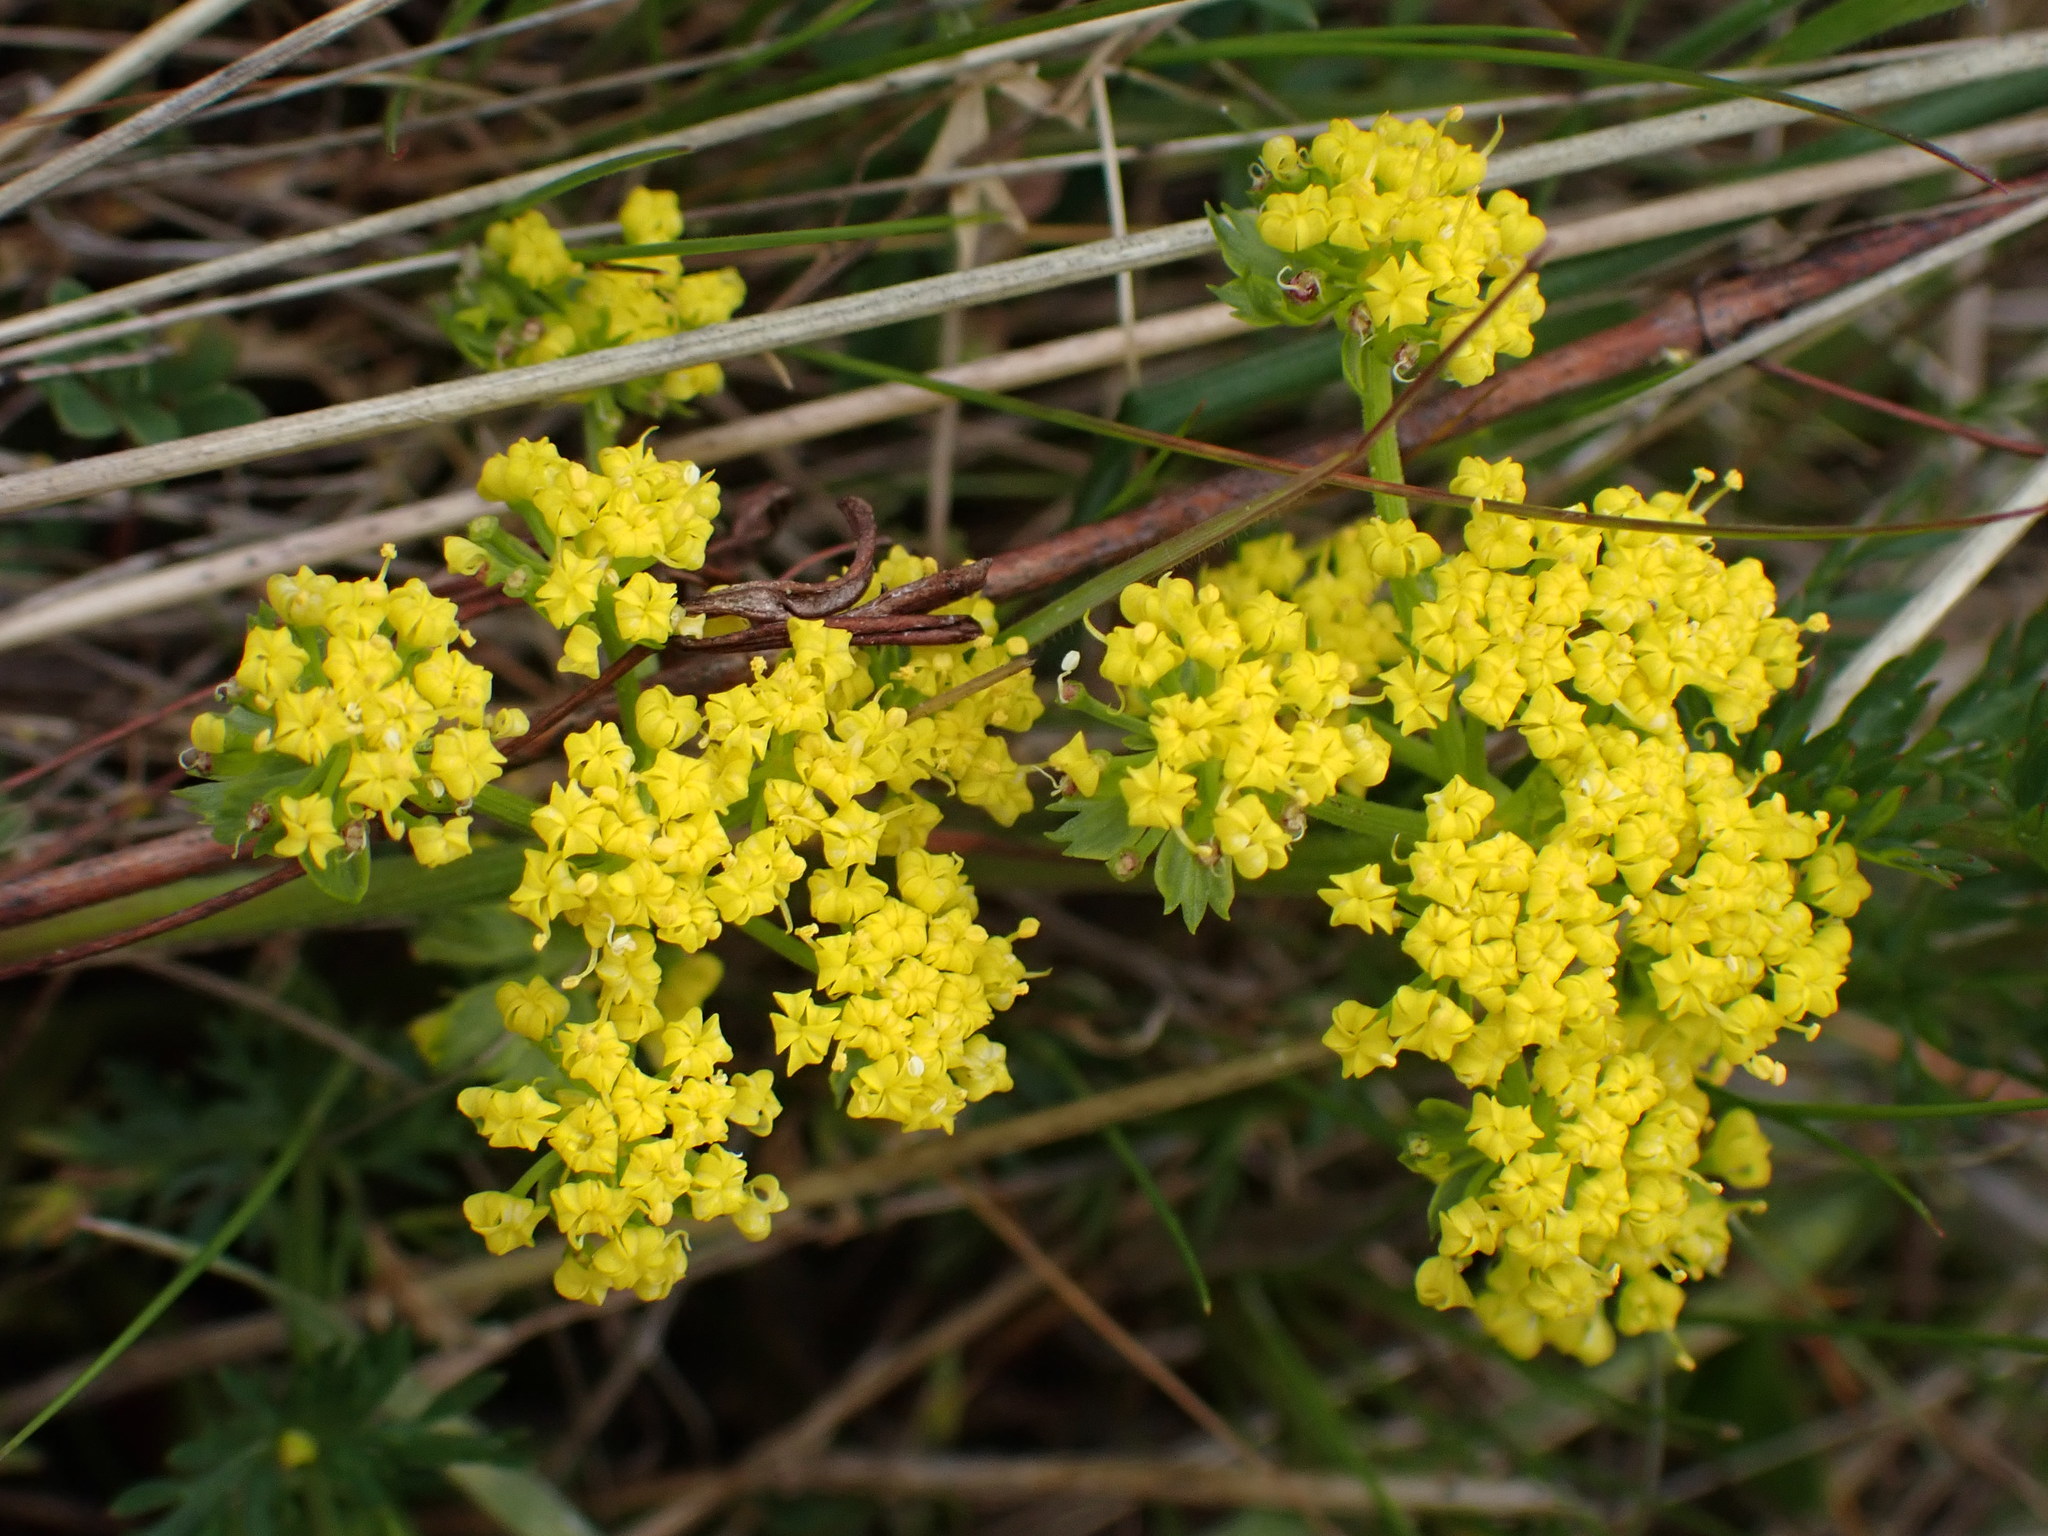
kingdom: Plantae
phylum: Tracheophyta
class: Magnoliopsida
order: Apiales
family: Apiaceae
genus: Lomatium
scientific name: Lomatium utriculatum
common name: Fine-leaf desert-parsley
